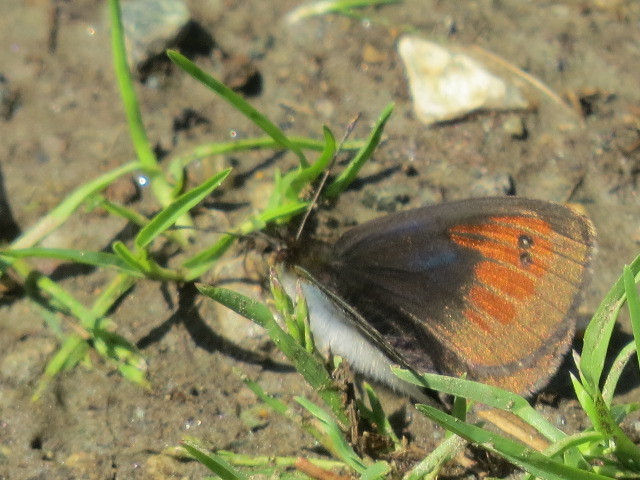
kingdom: Animalia
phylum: Arthropoda
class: Insecta
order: Lepidoptera
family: Nymphalidae
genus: Erebia
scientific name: Erebia tyndarus
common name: Swiss brassy ringlet
